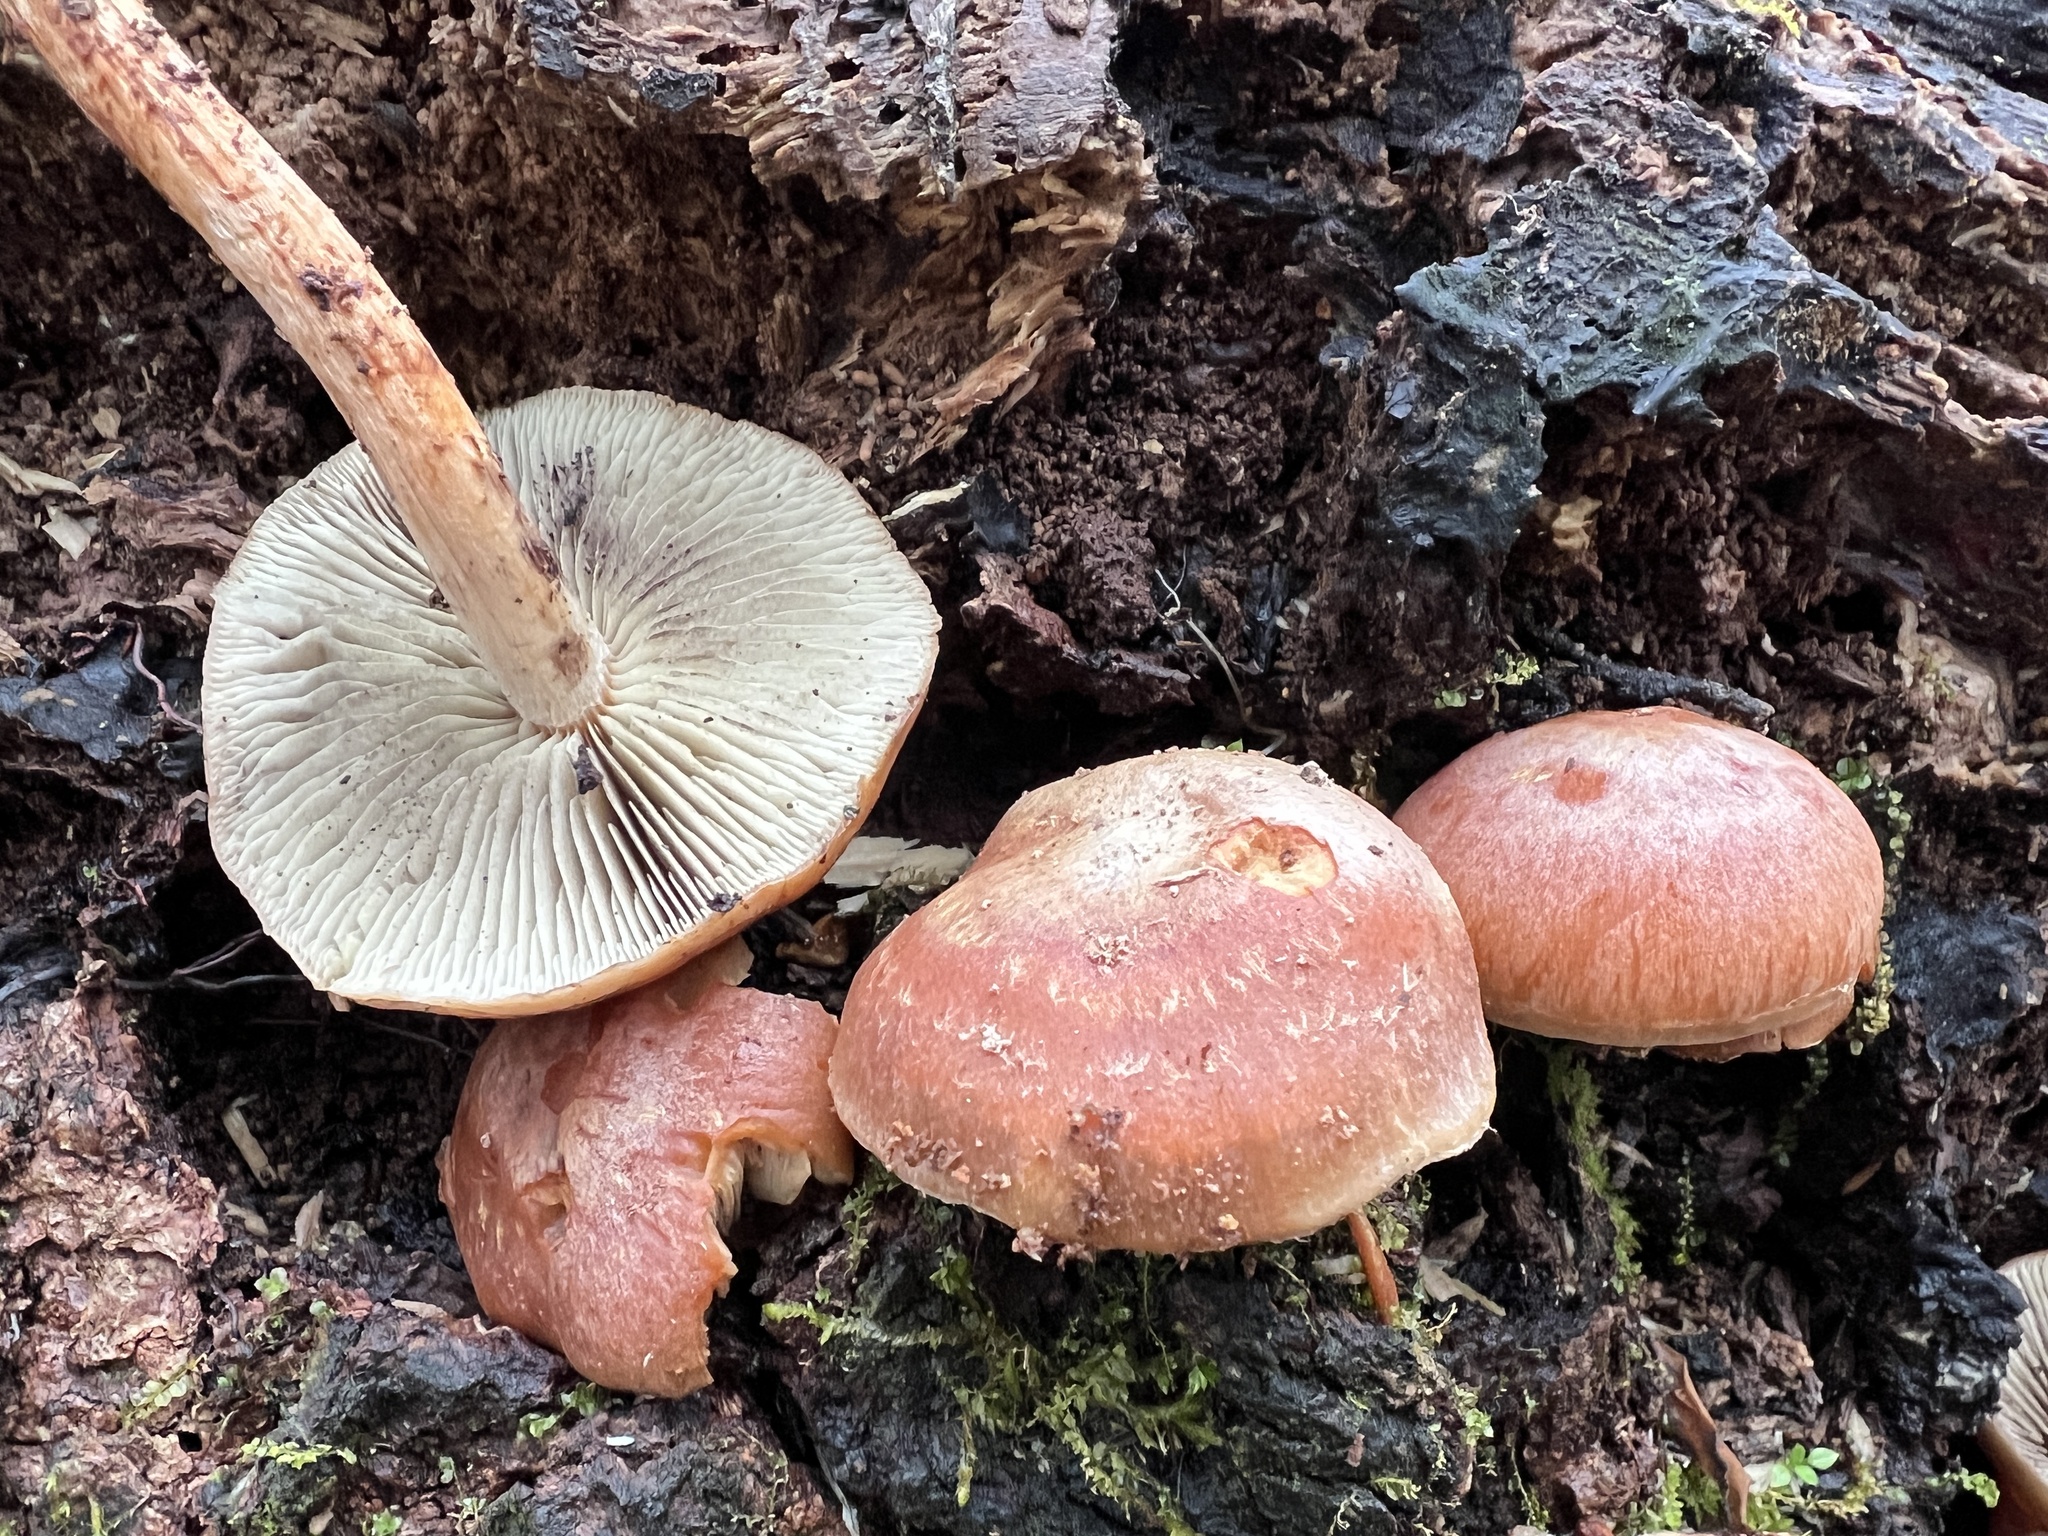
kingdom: Fungi
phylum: Basidiomycota
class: Agaricomycetes
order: Agaricales
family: Strophariaceae
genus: Hypholoma
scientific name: Hypholoma lateritium
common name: Brick caps
